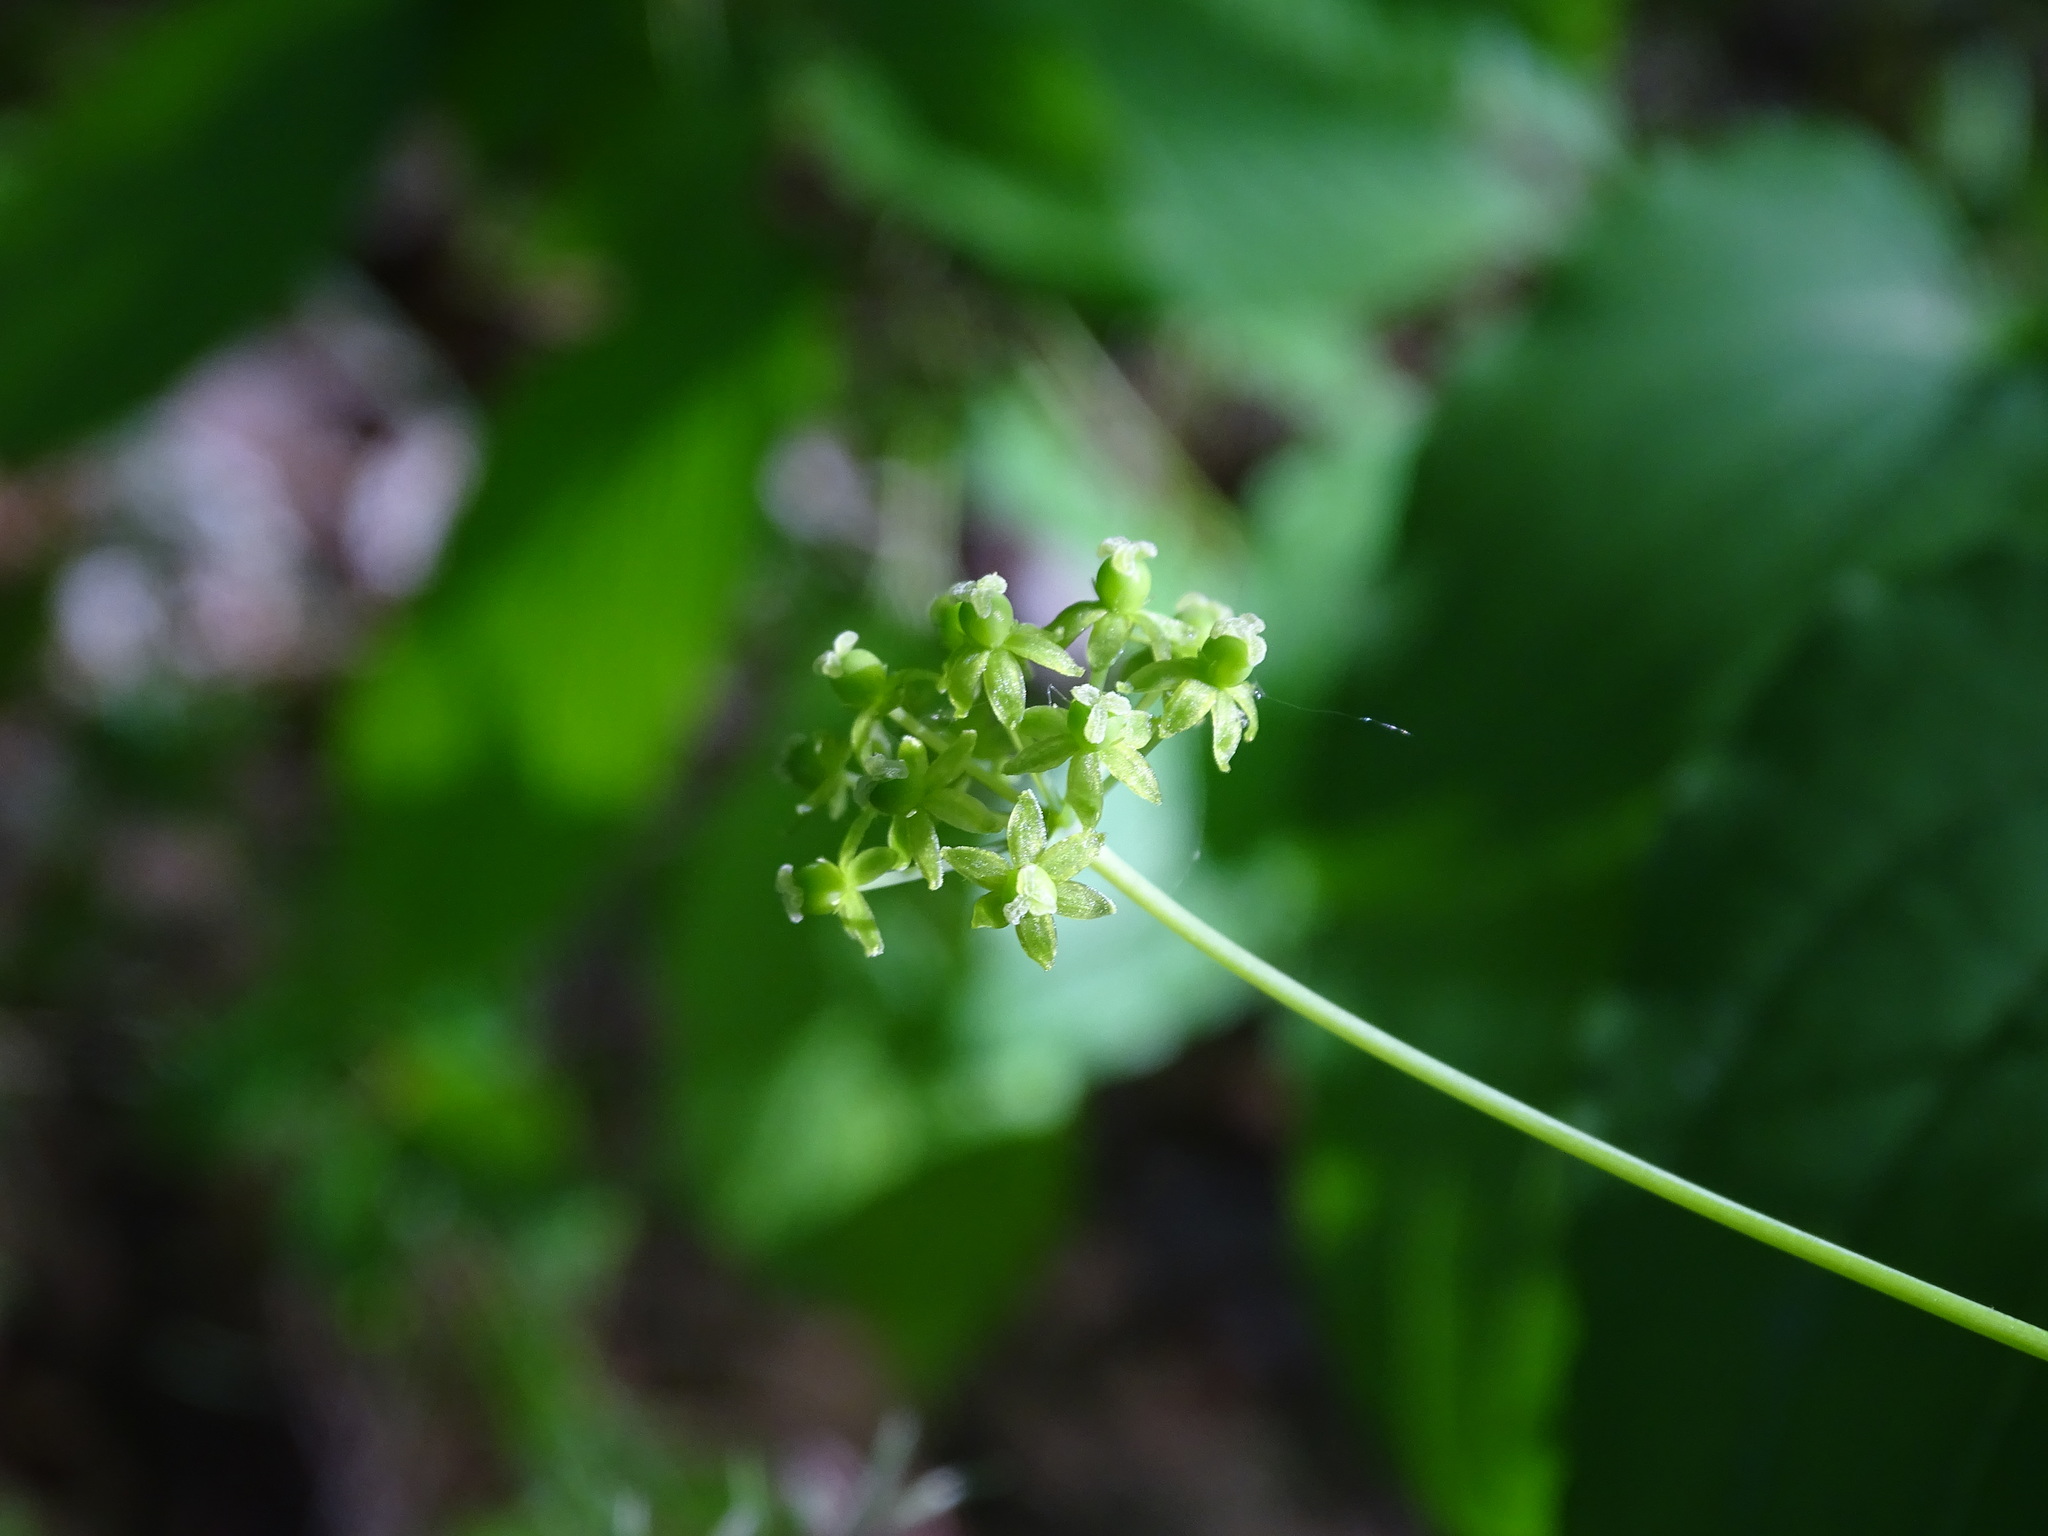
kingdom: Plantae
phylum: Tracheophyta
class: Liliopsida
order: Liliales
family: Smilacaceae
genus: Smilax
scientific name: Smilax herbacea
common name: Jacob's-ladder
